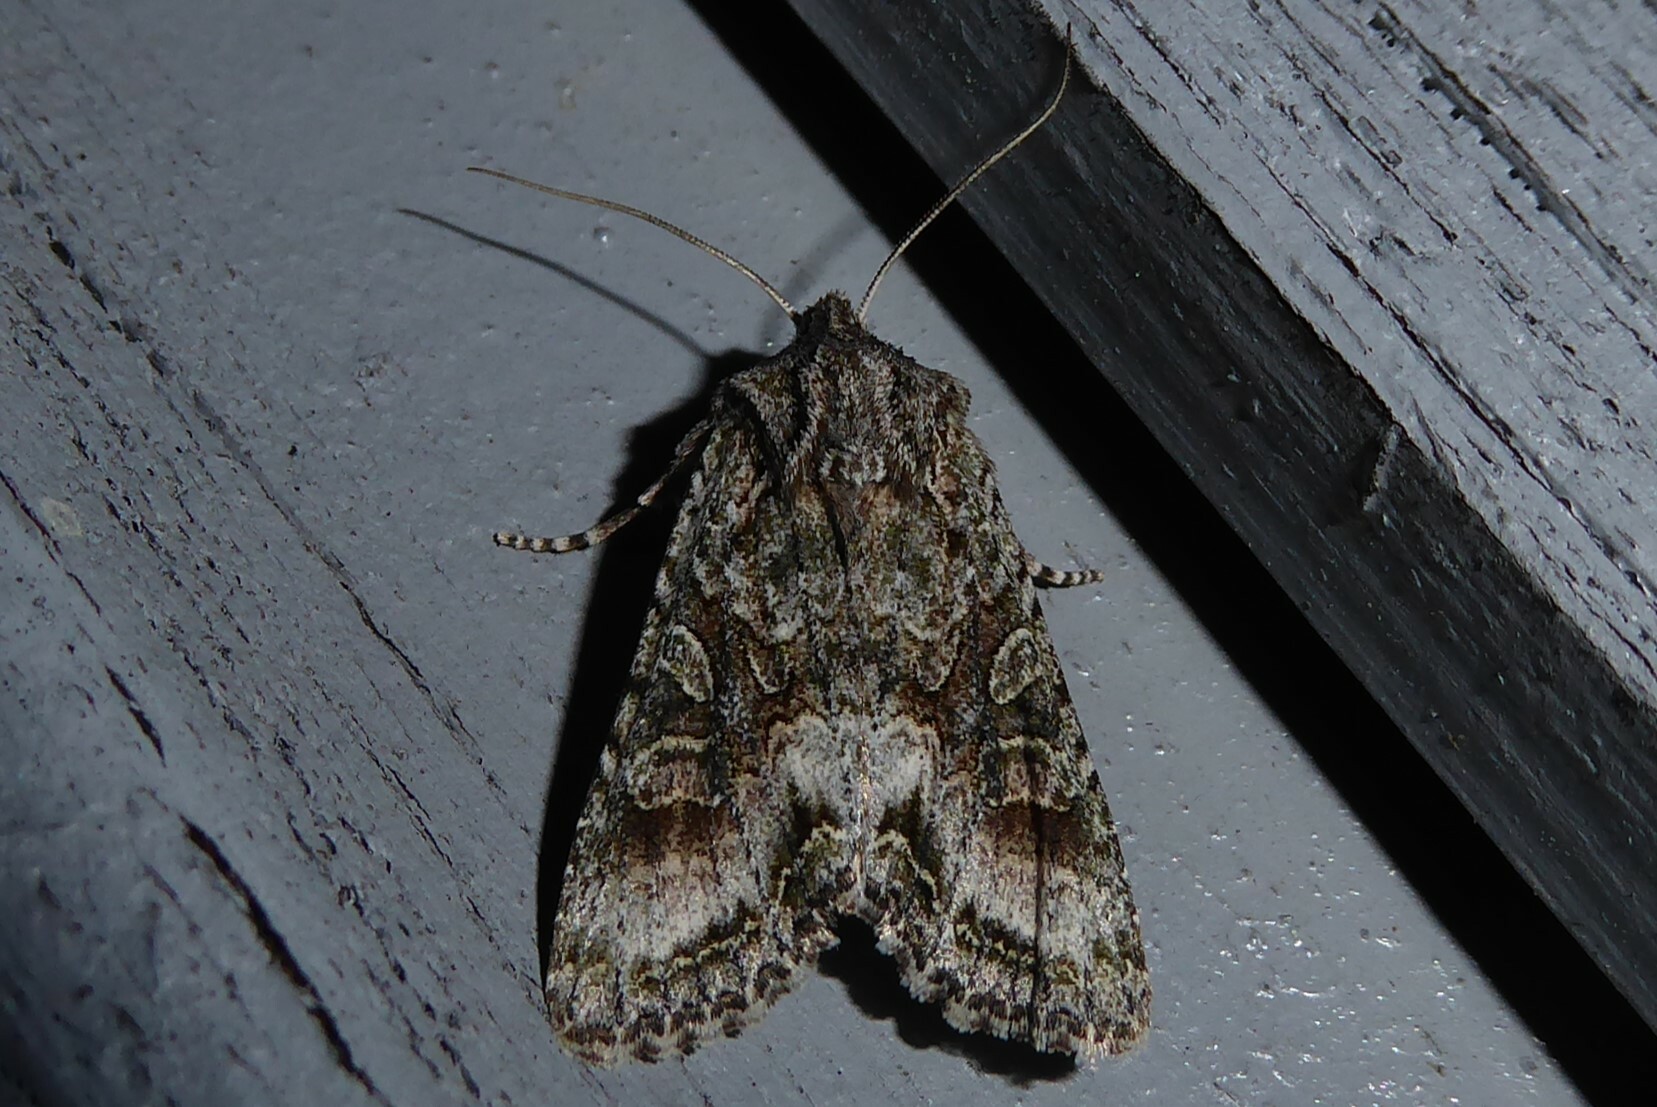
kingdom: Animalia
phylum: Arthropoda
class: Insecta
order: Lepidoptera
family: Noctuidae
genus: Ichneutica
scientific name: Ichneutica mutans
